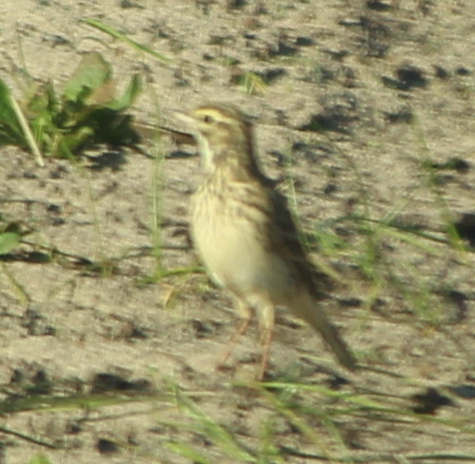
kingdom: Animalia
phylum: Chordata
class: Aves
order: Passeriformes
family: Motacillidae
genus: Anthus
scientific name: Anthus australis
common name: Australian pipit
